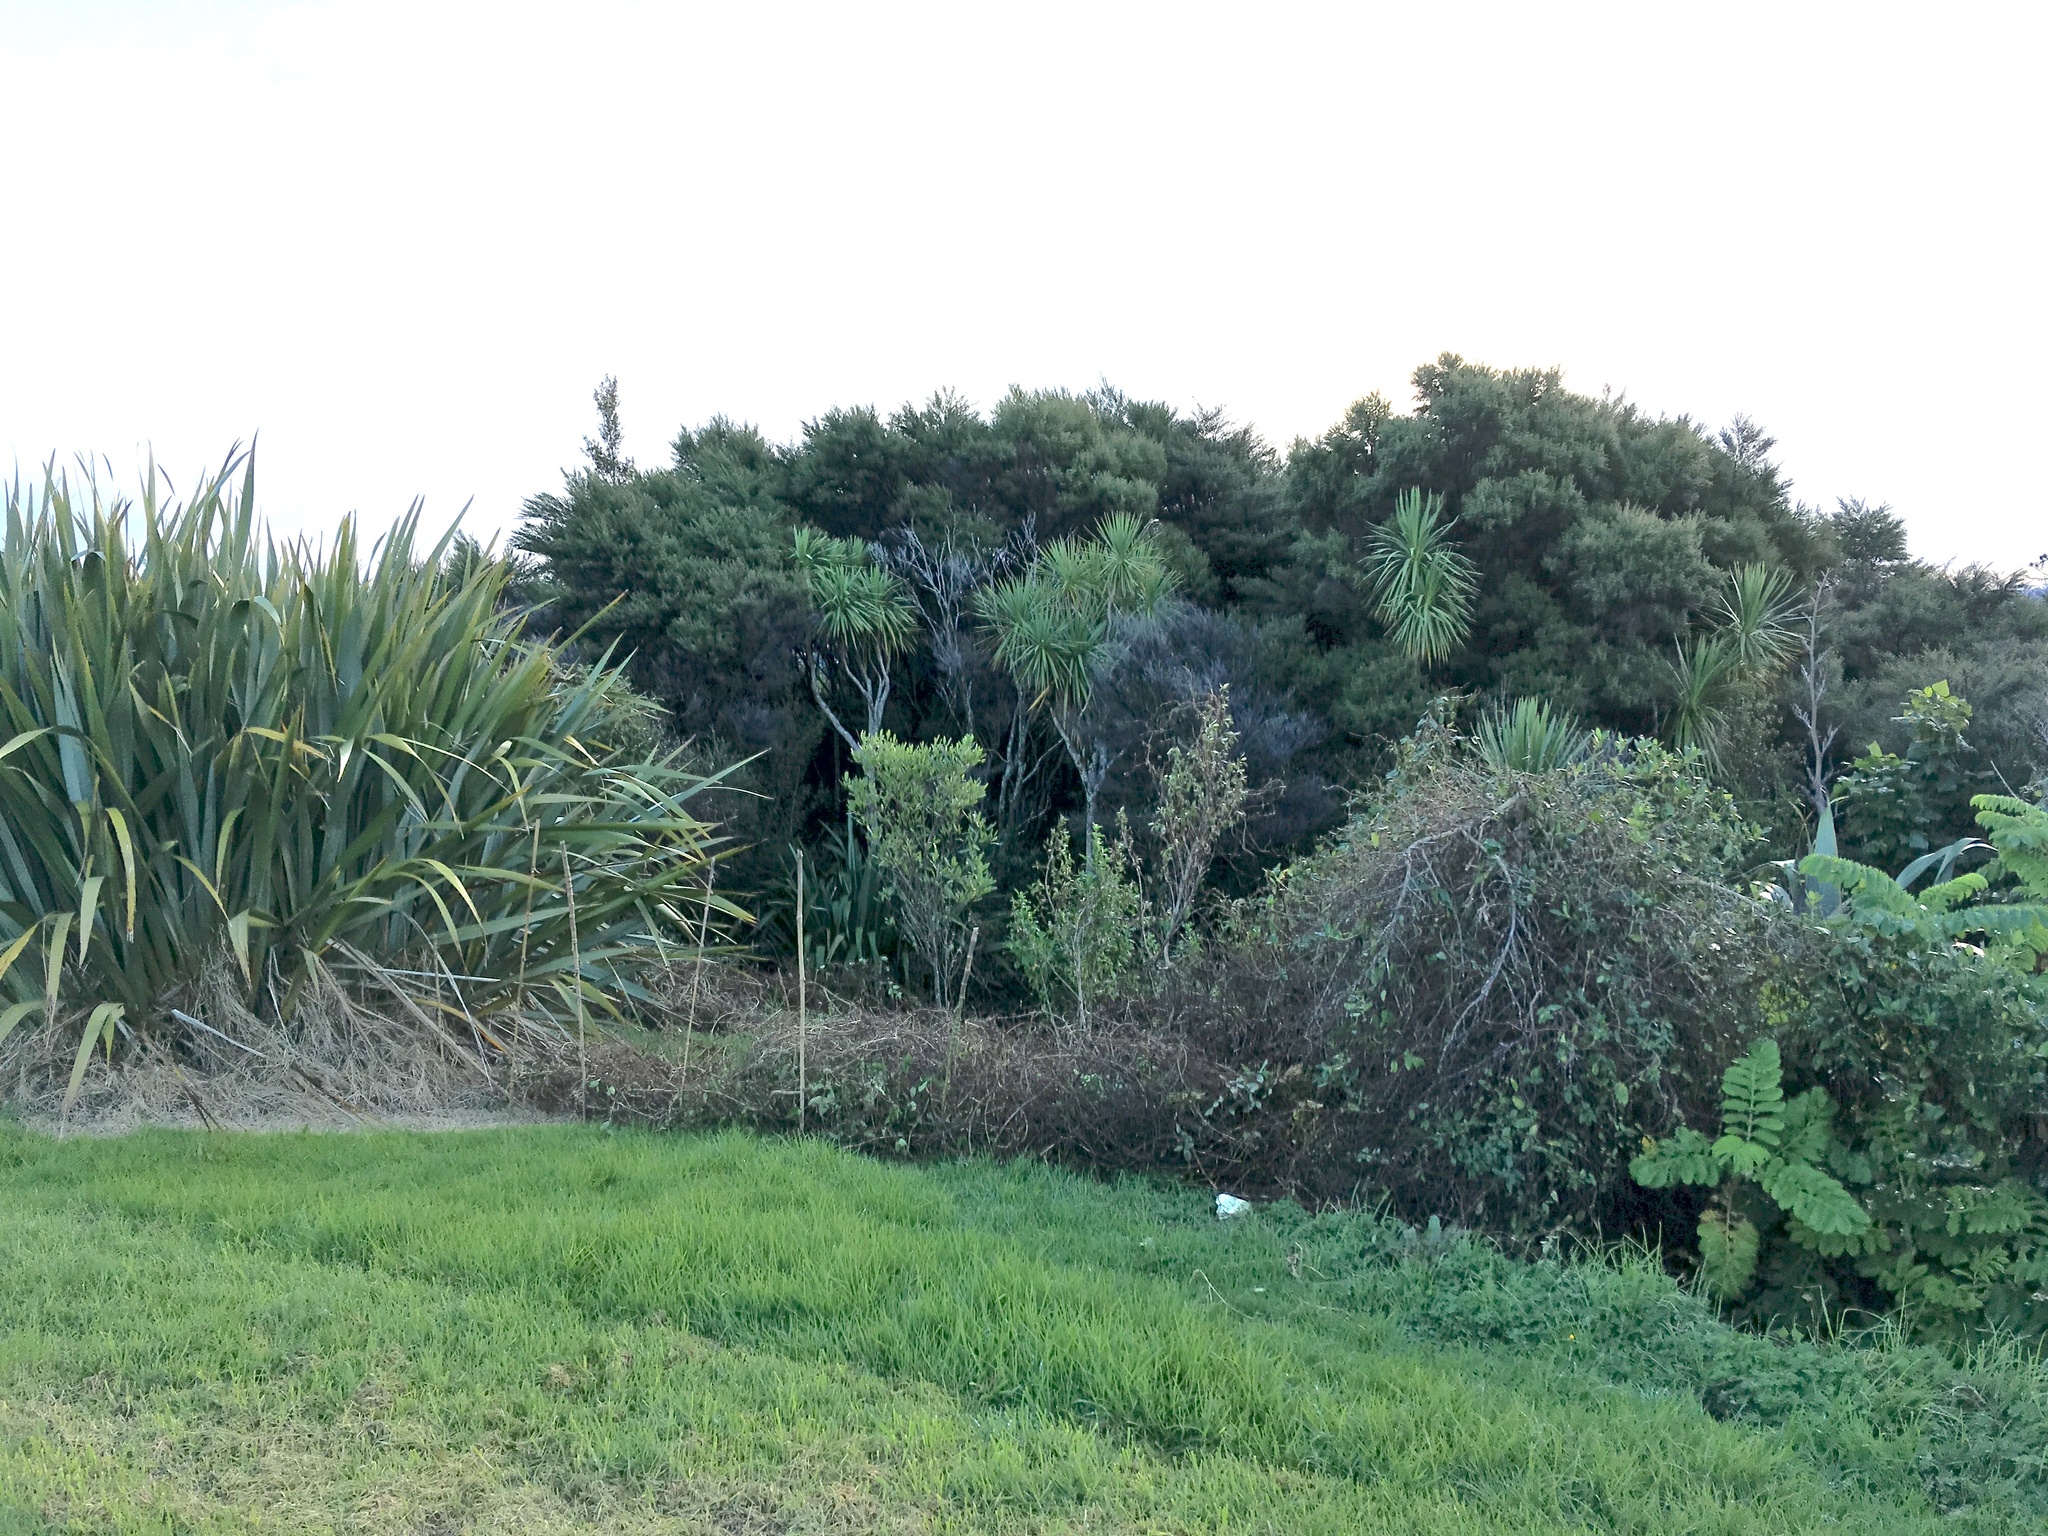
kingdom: Plantae
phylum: Tracheophyta
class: Magnoliopsida
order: Geraniales
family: Melianthaceae
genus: Melianthus
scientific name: Melianthus major
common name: Honey-flower
